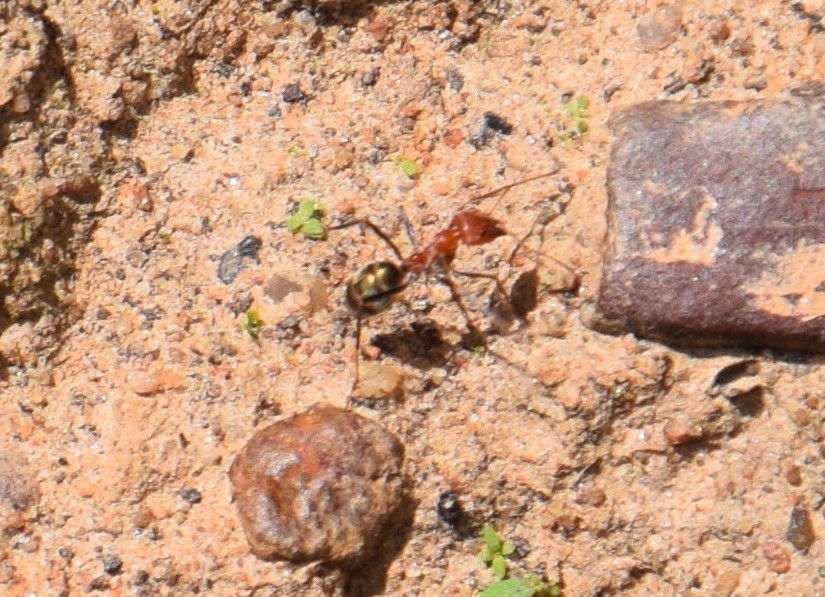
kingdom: Animalia
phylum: Arthropoda
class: Insecta
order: Hymenoptera
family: Formicidae
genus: Iridomyrmex
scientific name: Iridomyrmex sanguineus
